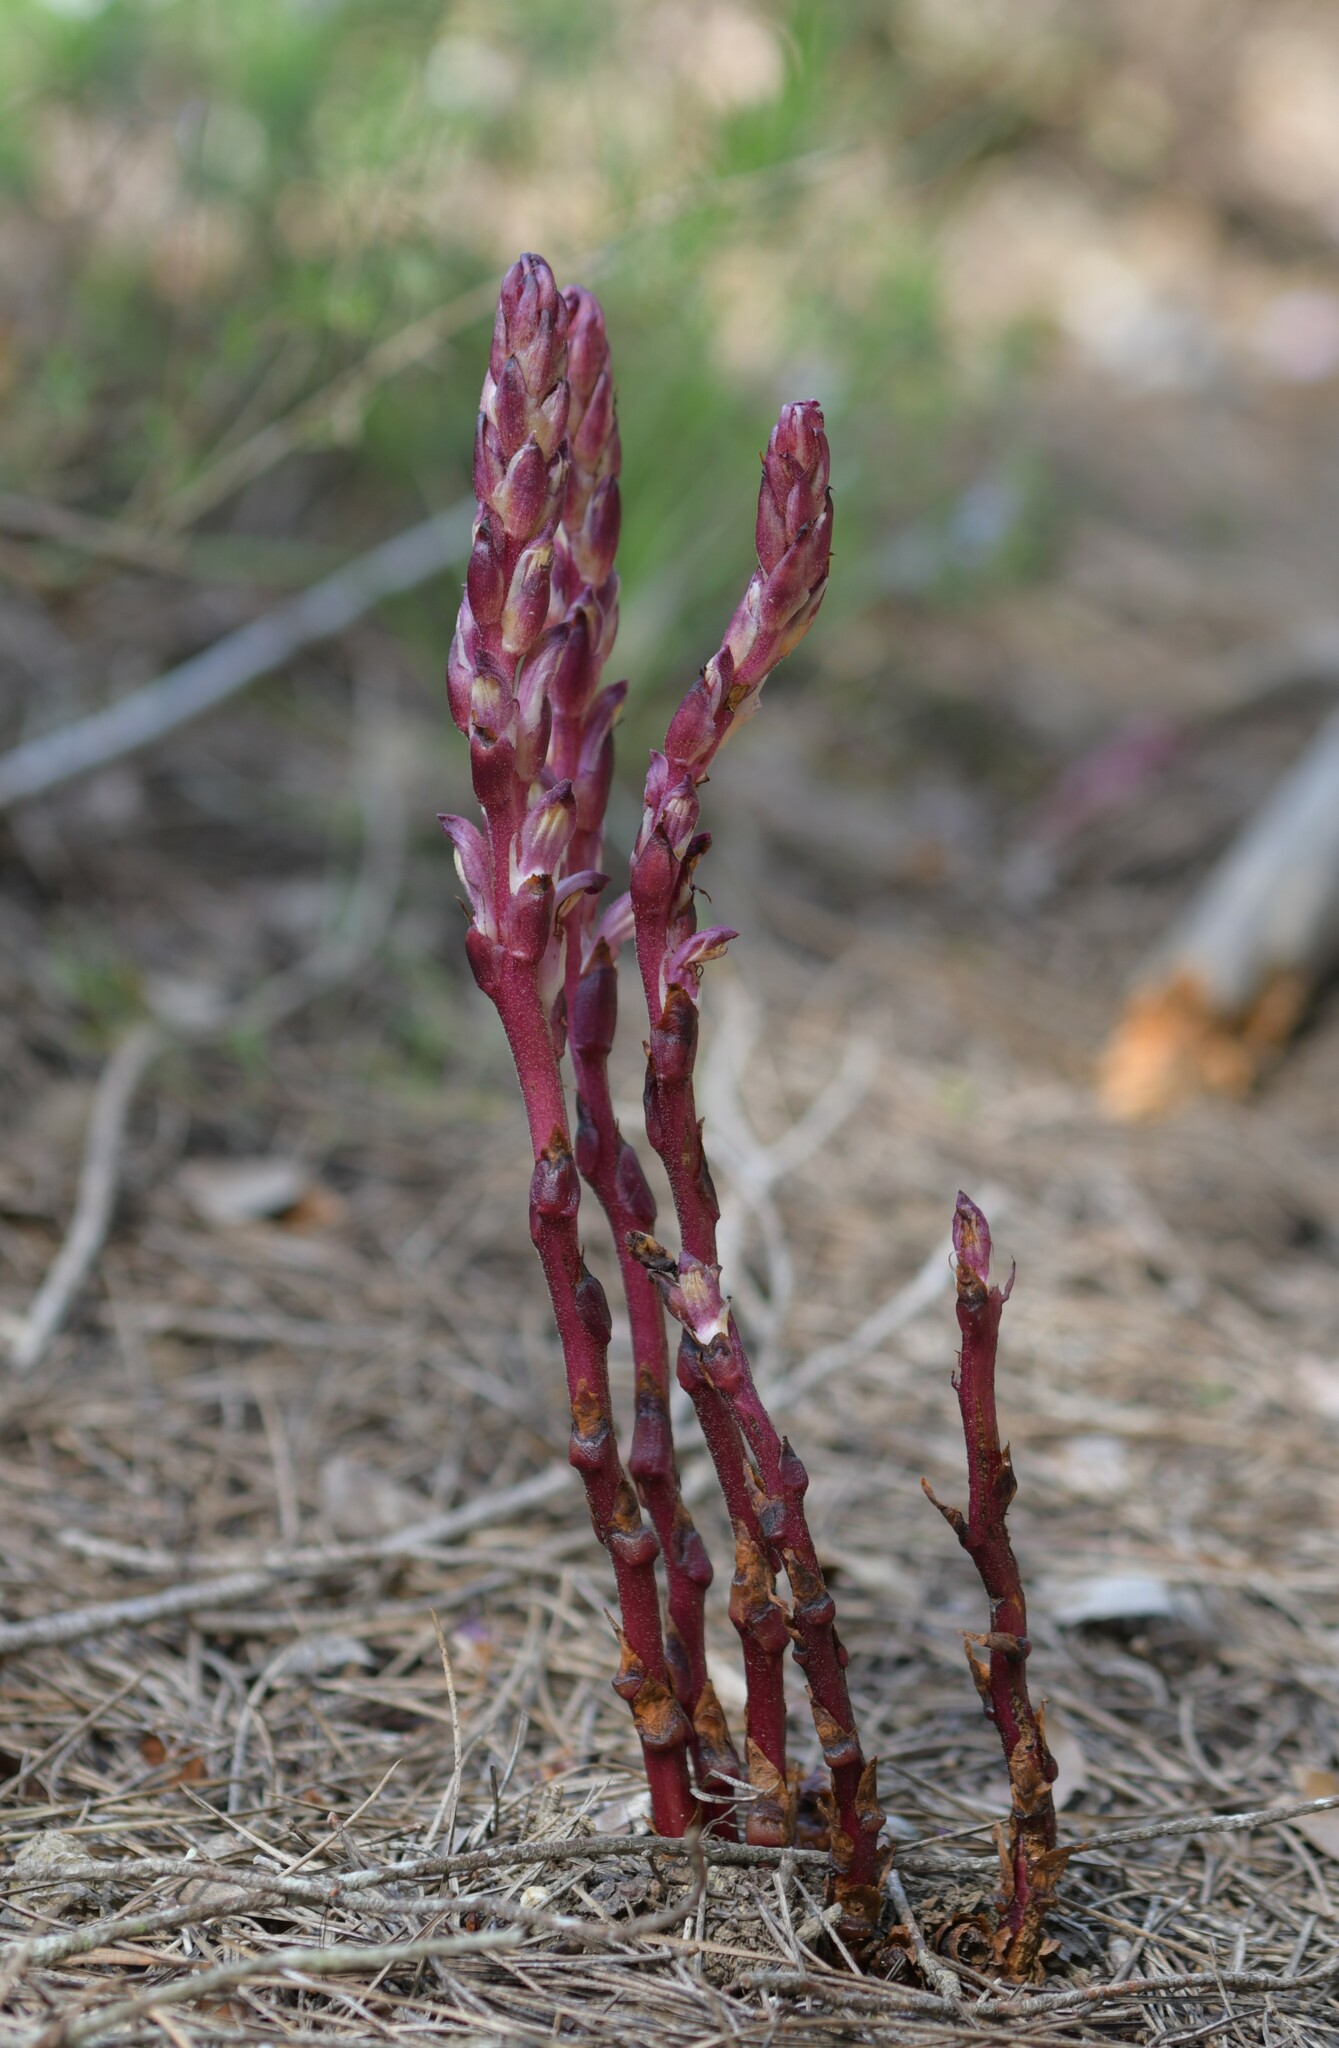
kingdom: Plantae
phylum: Tracheophyta
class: Magnoliopsida
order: Lamiales
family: Orobanchaceae
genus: Boulardia
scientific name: Boulardia latisquama
